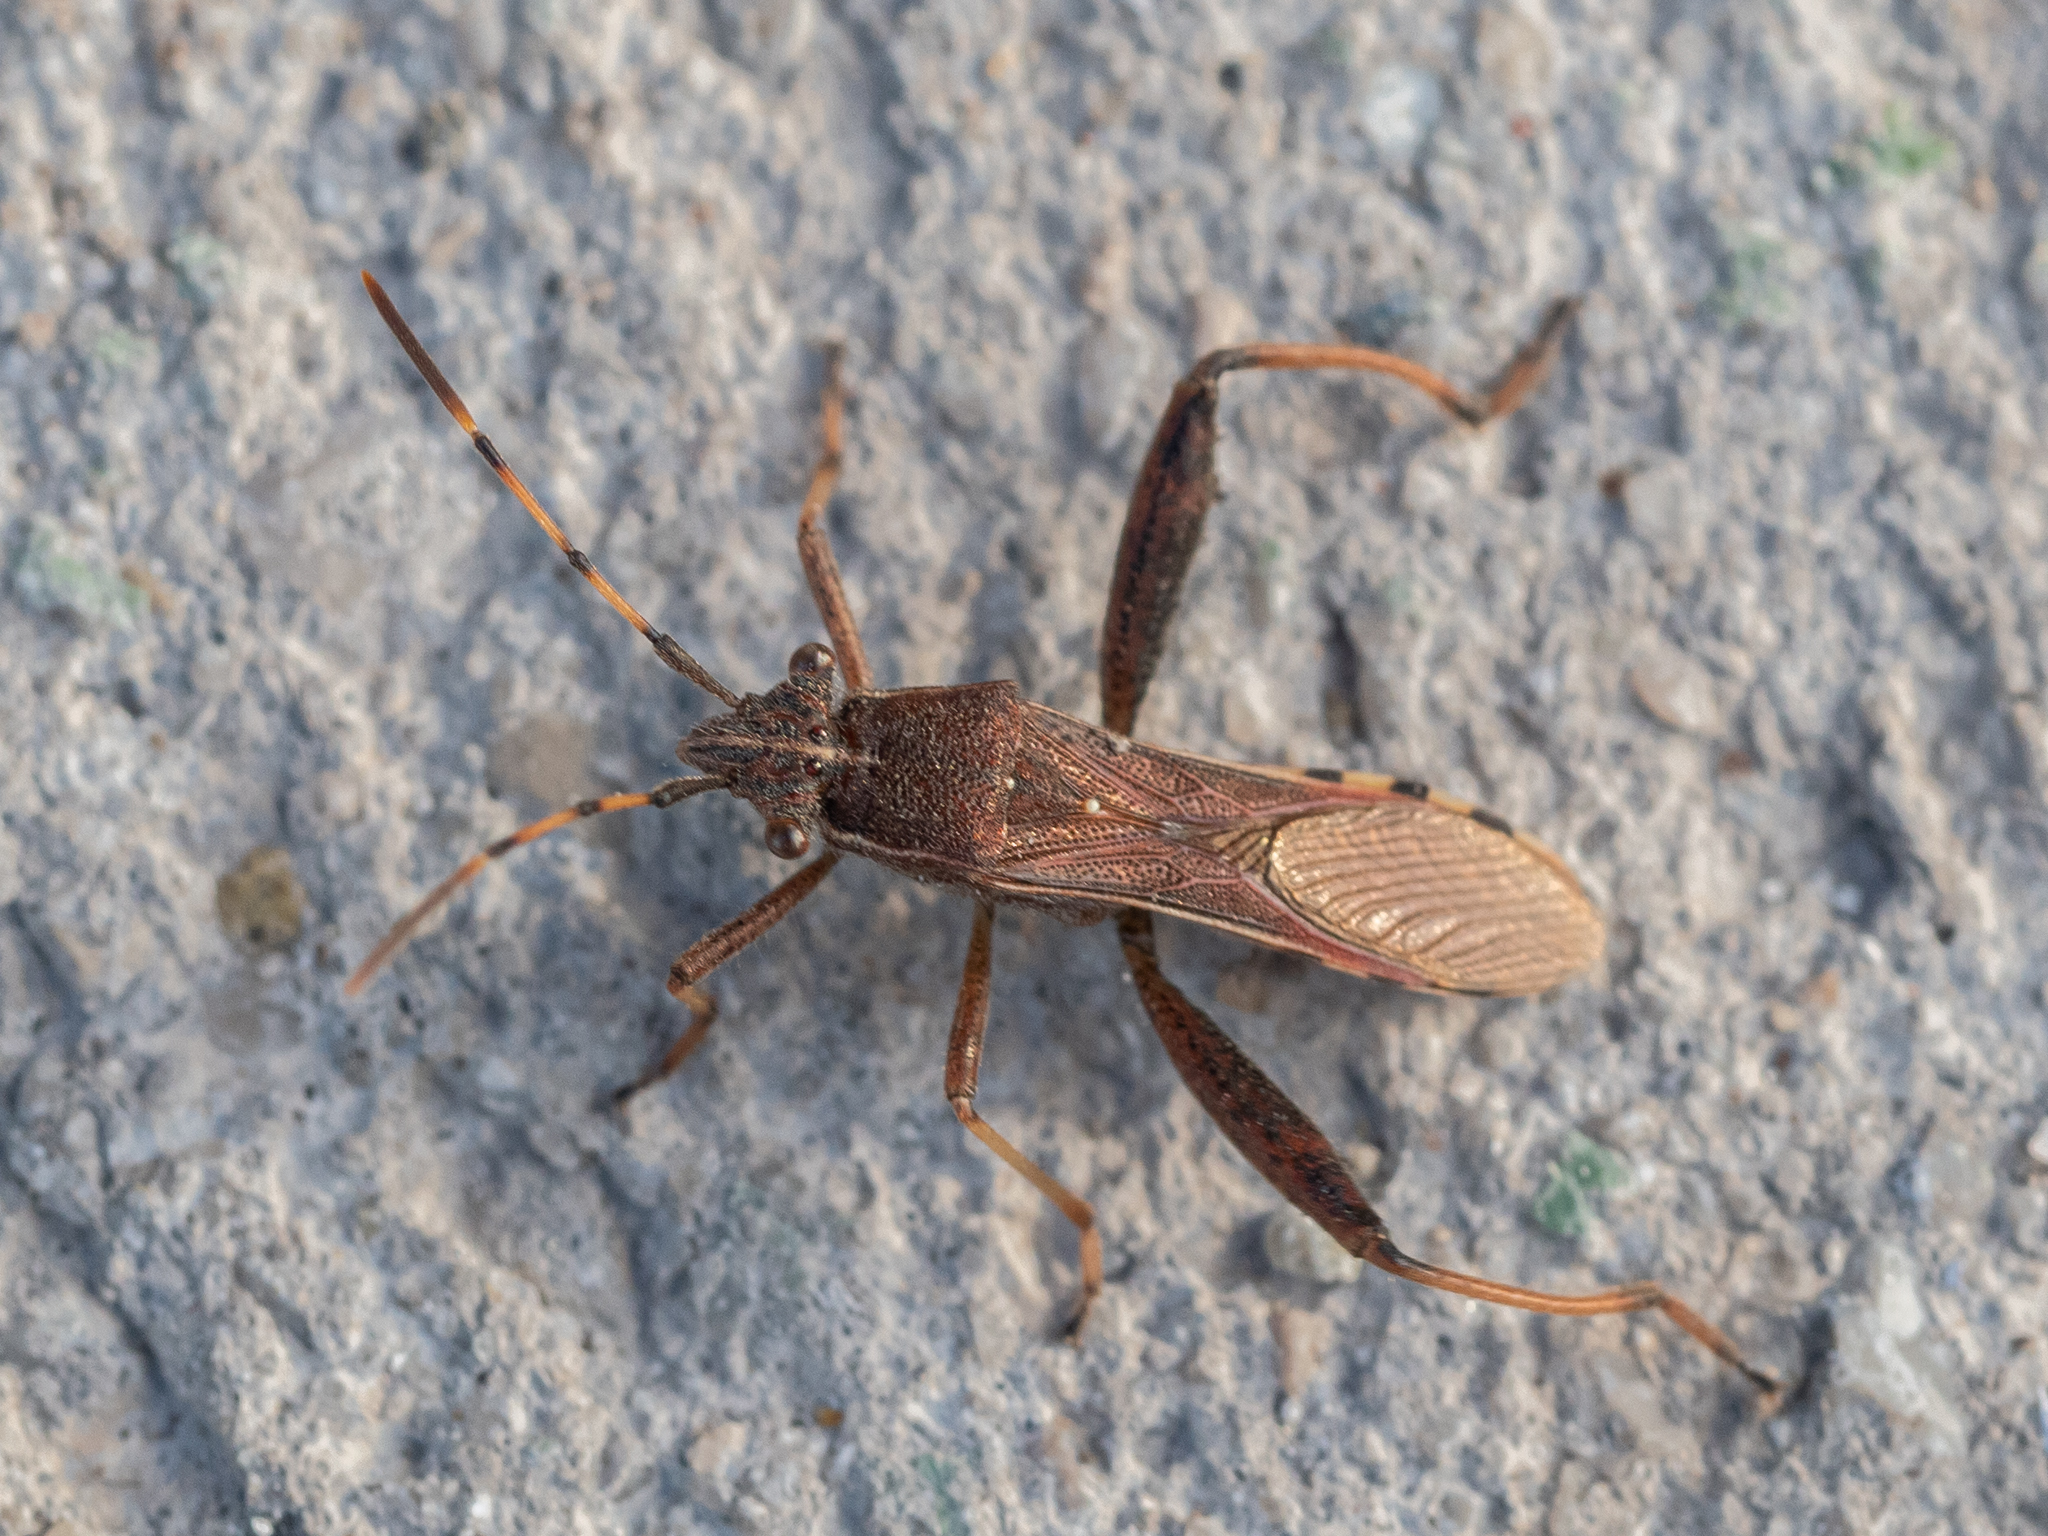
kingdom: Animalia
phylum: Arthropoda
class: Insecta
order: Hemiptera
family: Alydidae
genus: Camptopus
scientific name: Camptopus lateralis
